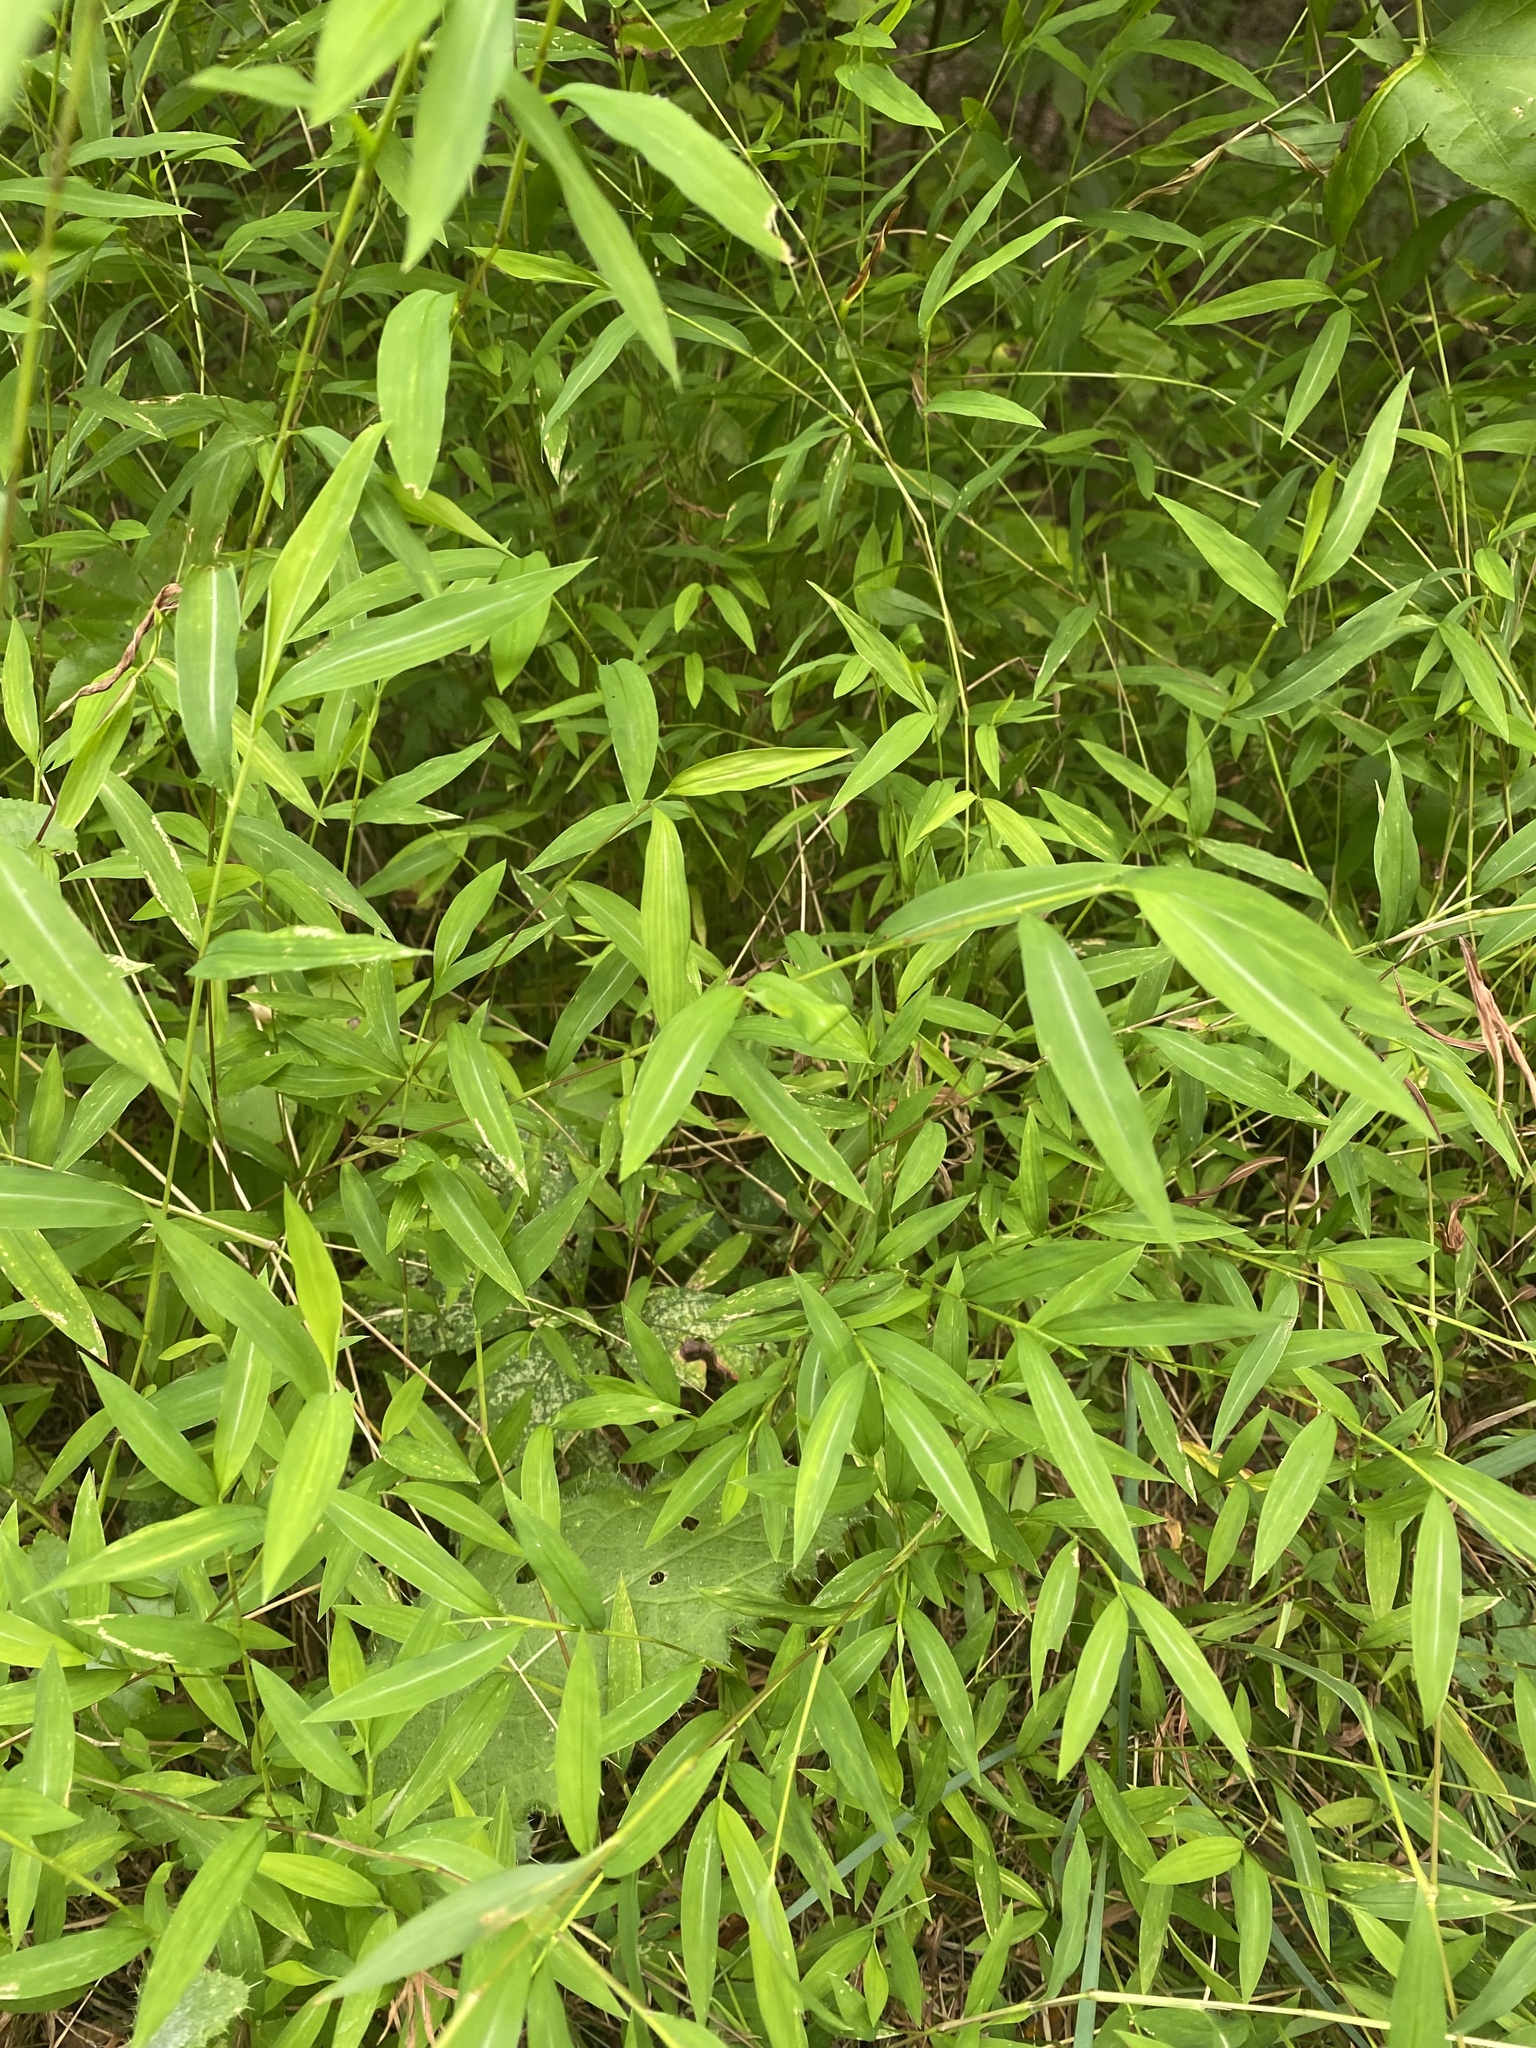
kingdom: Plantae
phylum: Tracheophyta
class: Liliopsida
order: Poales
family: Poaceae
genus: Microstegium
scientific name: Microstegium vimineum
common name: Japanese stiltgrass
